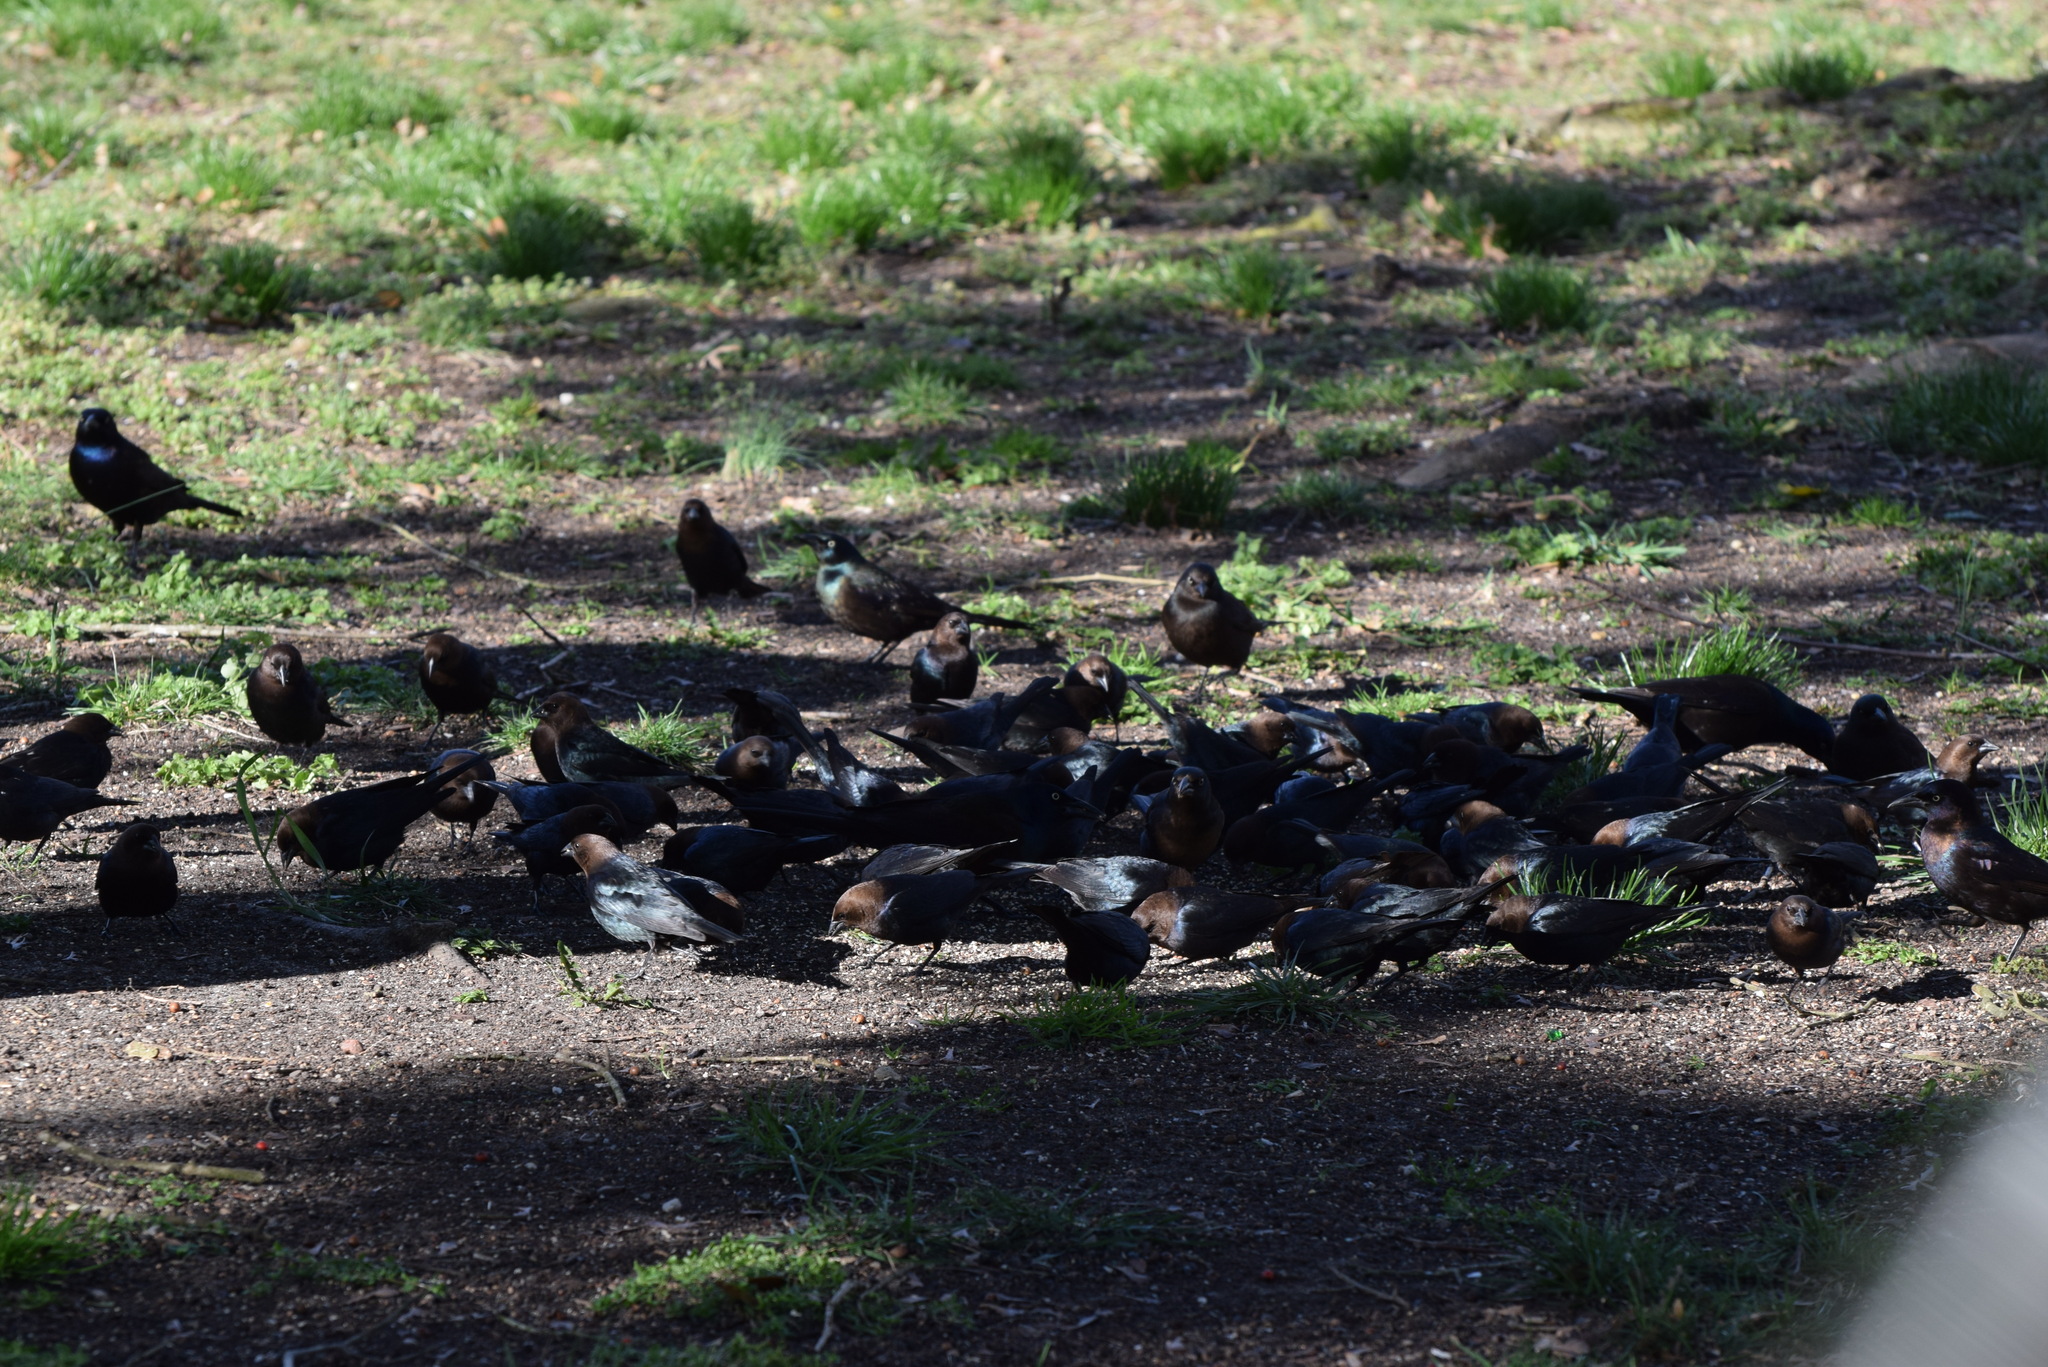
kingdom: Animalia
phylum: Chordata
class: Aves
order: Passeriformes
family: Icteridae
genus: Molothrus
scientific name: Molothrus ater
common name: Brown-headed cowbird
